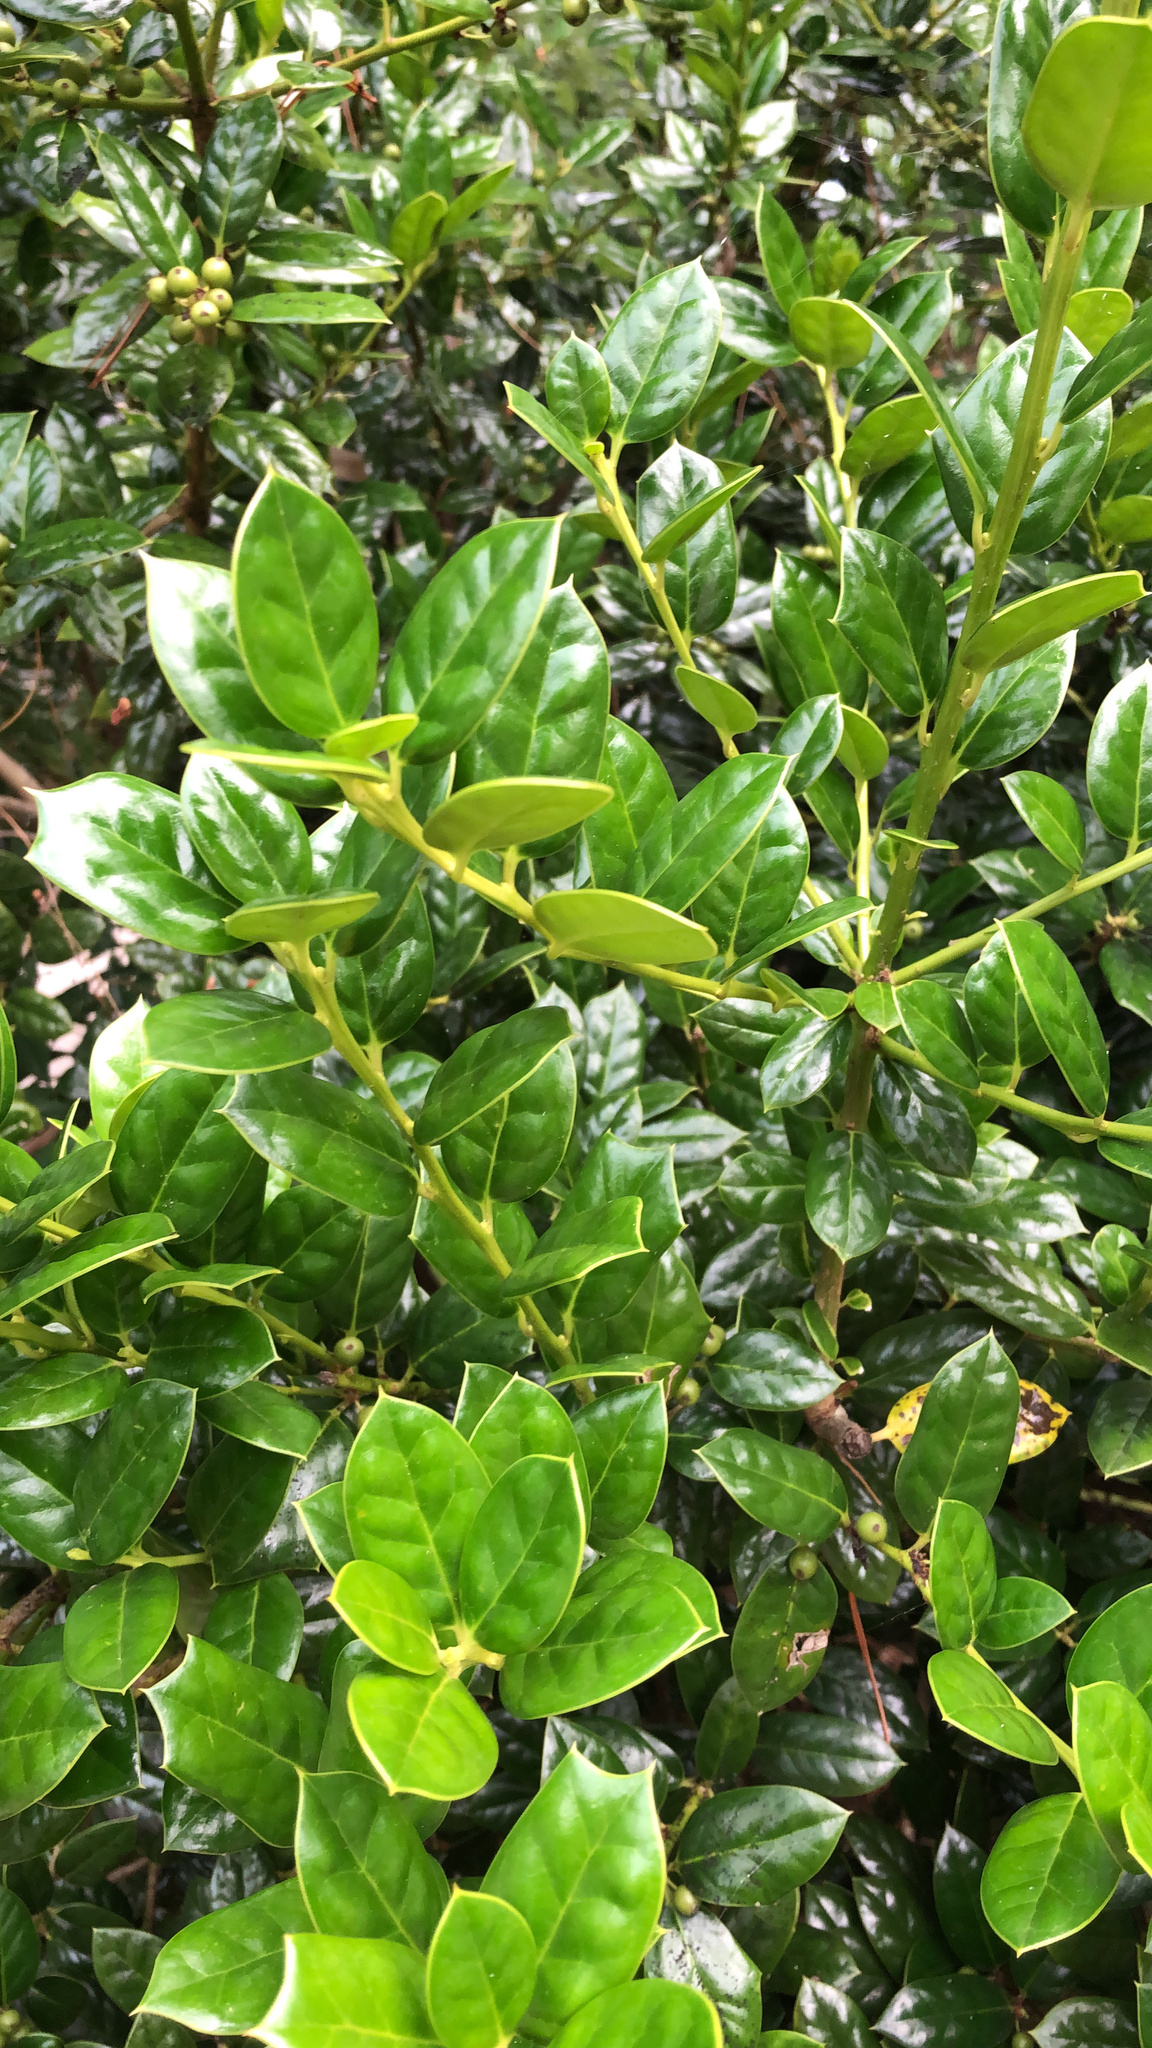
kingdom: Plantae
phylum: Tracheophyta
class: Magnoliopsida
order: Aquifoliales
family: Aquifoliaceae
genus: Ilex
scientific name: Ilex cornuta
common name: Chinese holly
